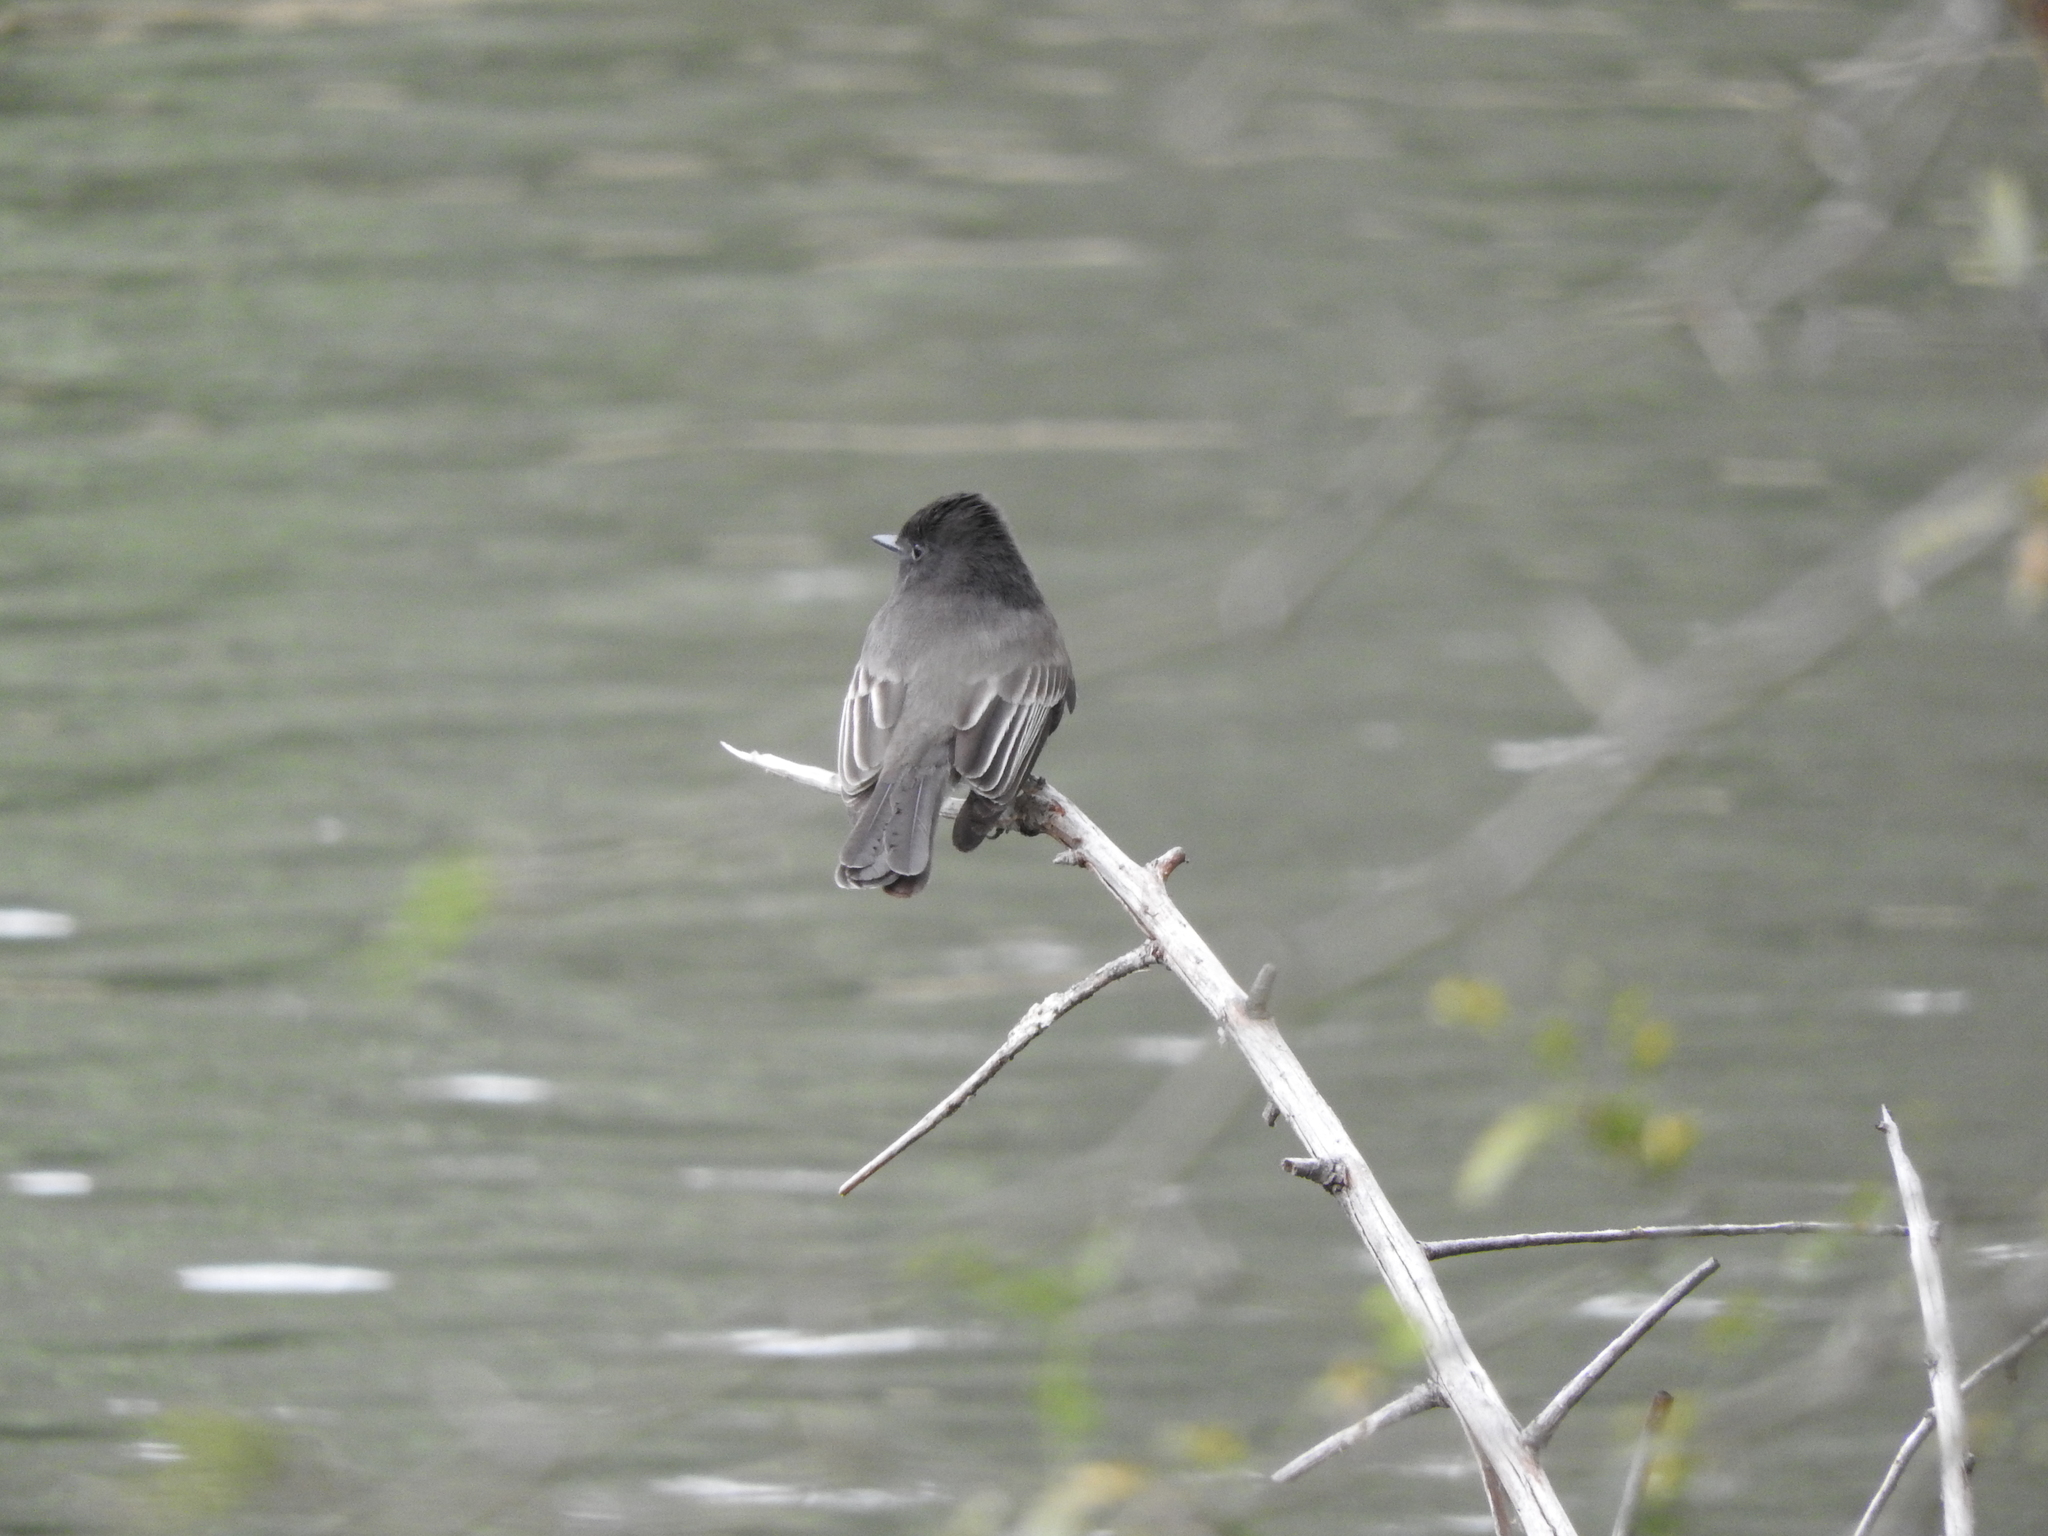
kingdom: Animalia
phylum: Chordata
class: Aves
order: Passeriformes
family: Tyrannidae
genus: Sayornis
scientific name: Sayornis nigricans
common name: Black phoebe
